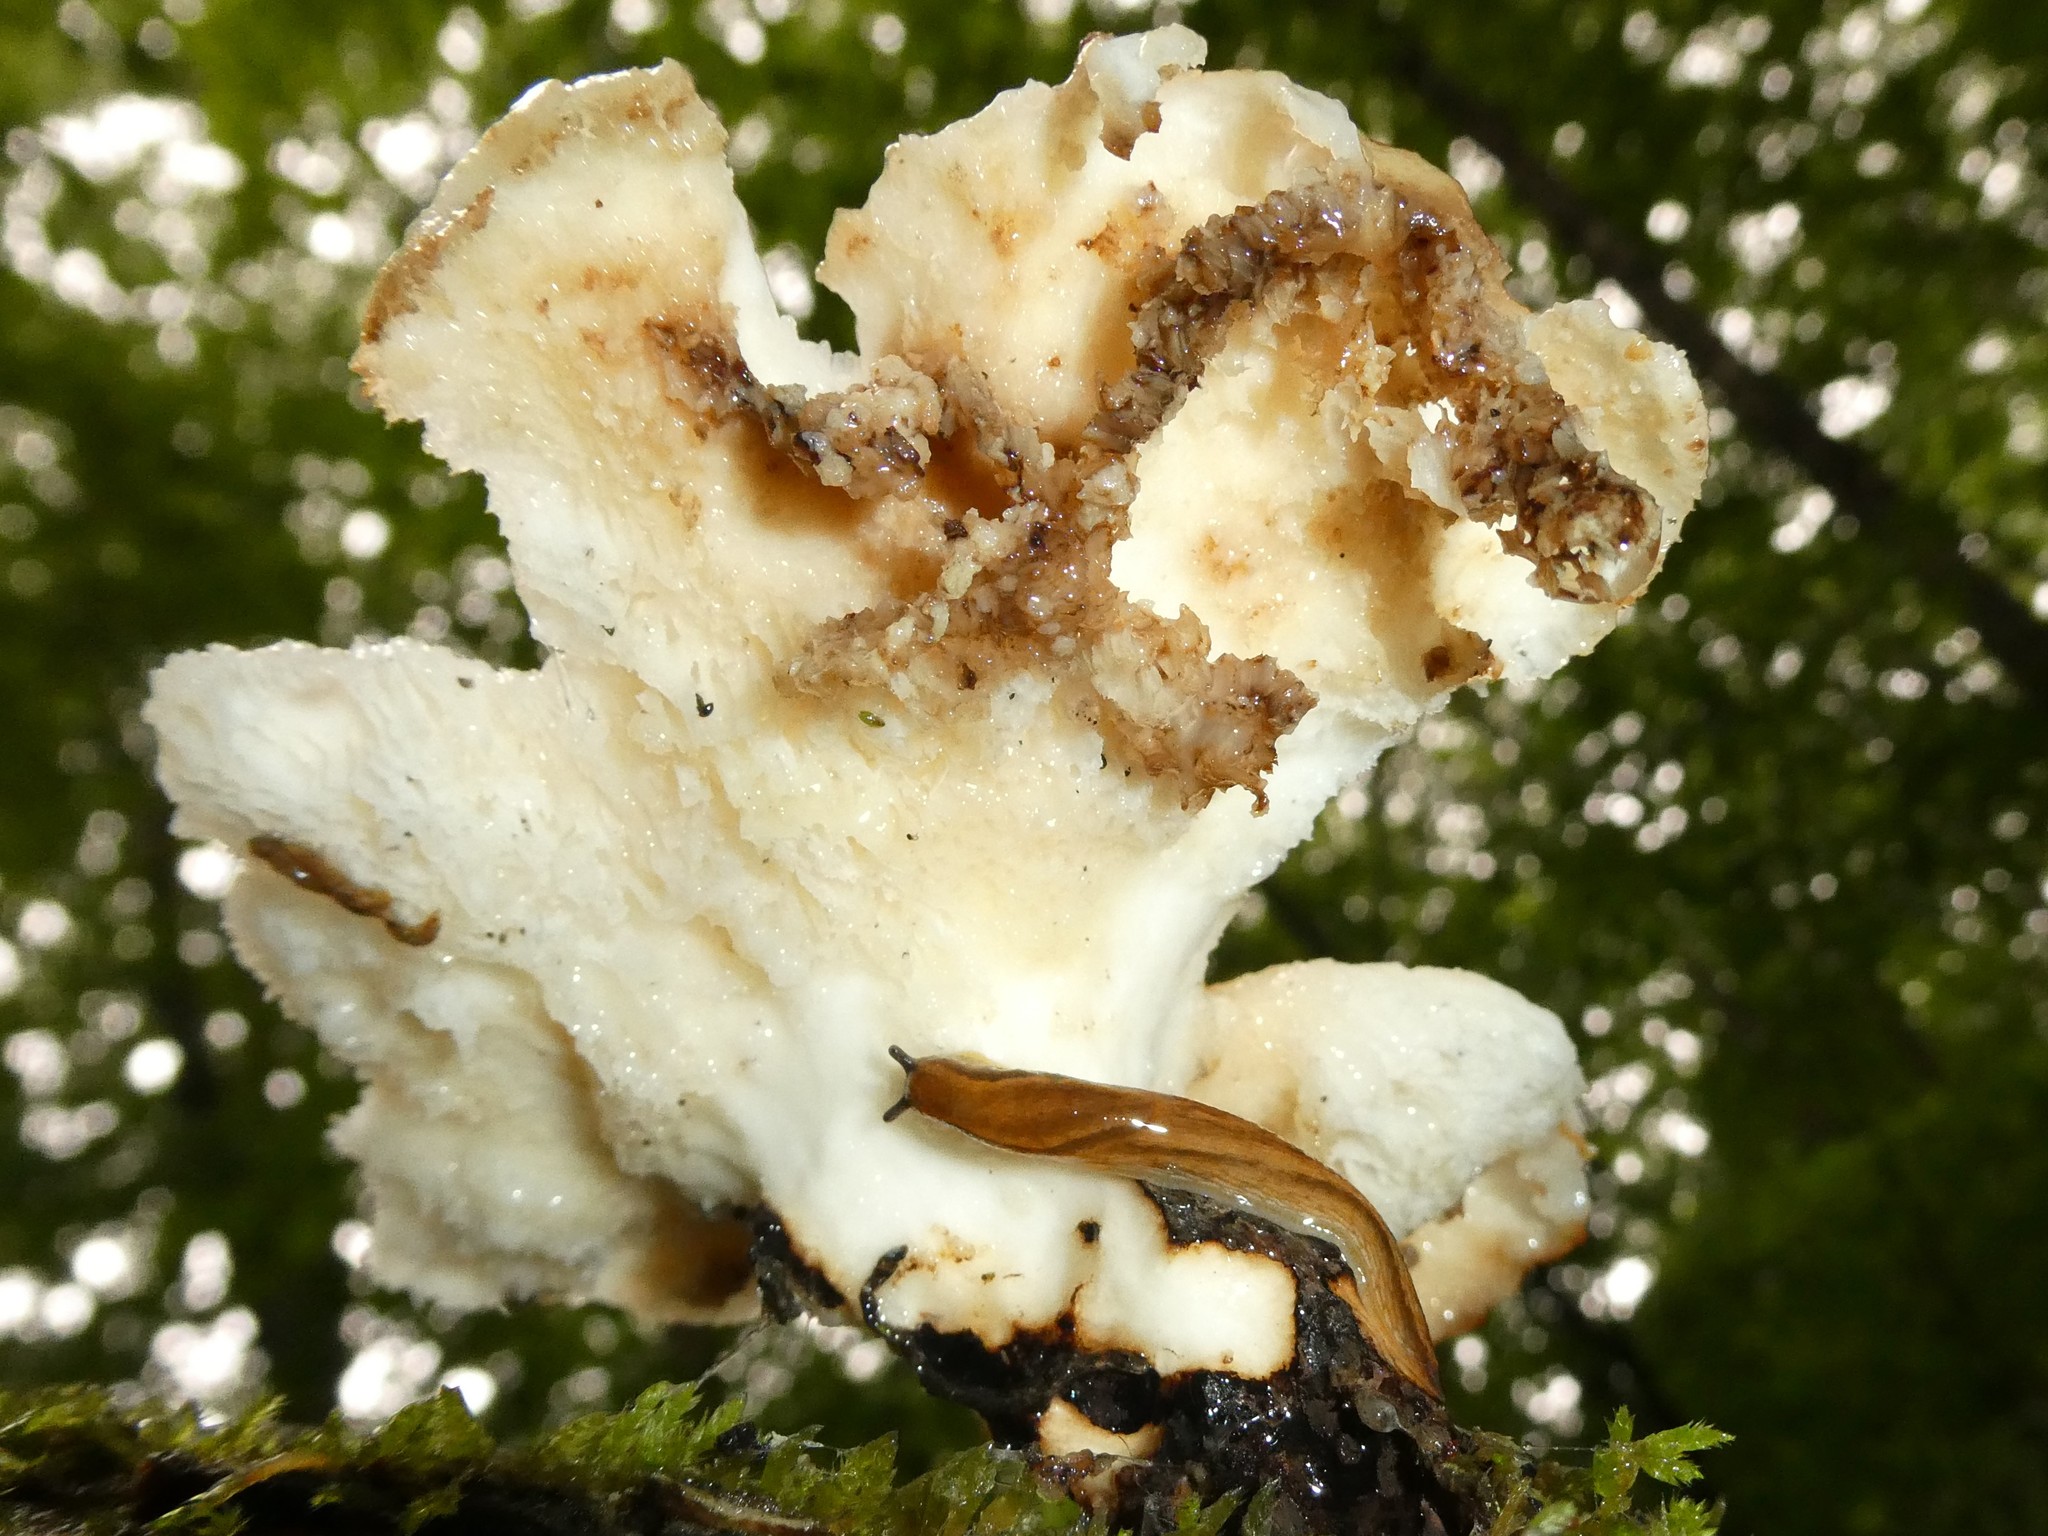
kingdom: Fungi
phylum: Basidiomycota
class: Agaricomycetes
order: Polyporales
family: Polyporaceae
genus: Cerioporus
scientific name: Cerioporus squamosus
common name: Dryad's saddle
